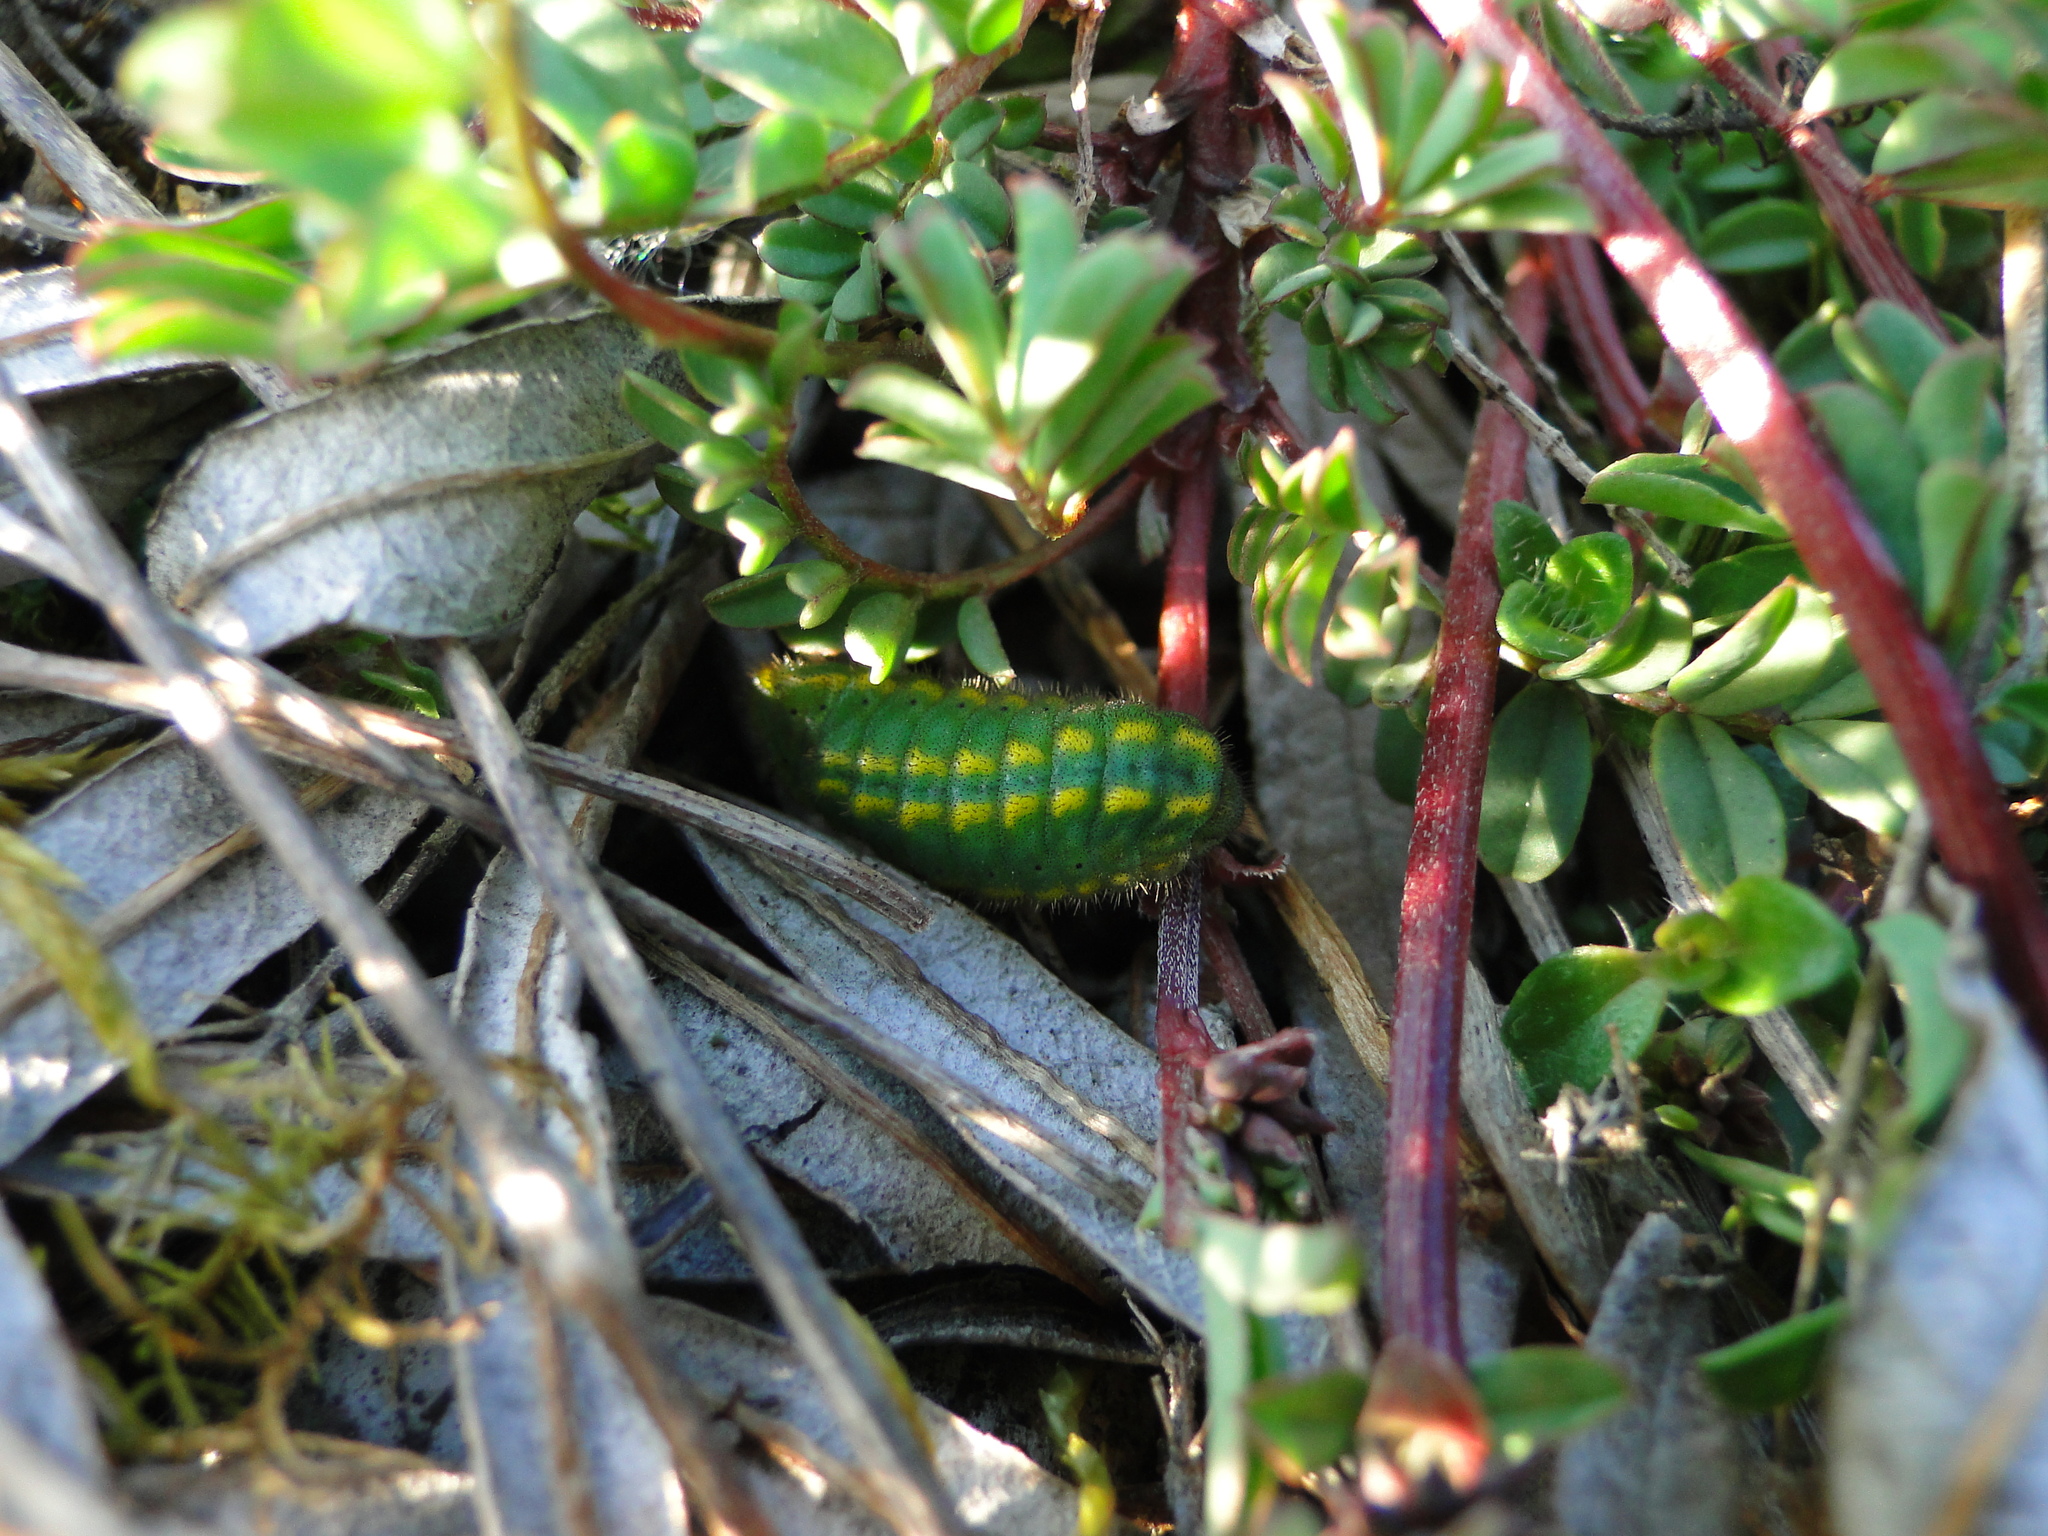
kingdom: Animalia
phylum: Arthropoda
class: Insecta
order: Lepidoptera
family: Lycaenidae
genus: Lysandra
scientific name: Lysandra bellargus
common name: Adonis blue
